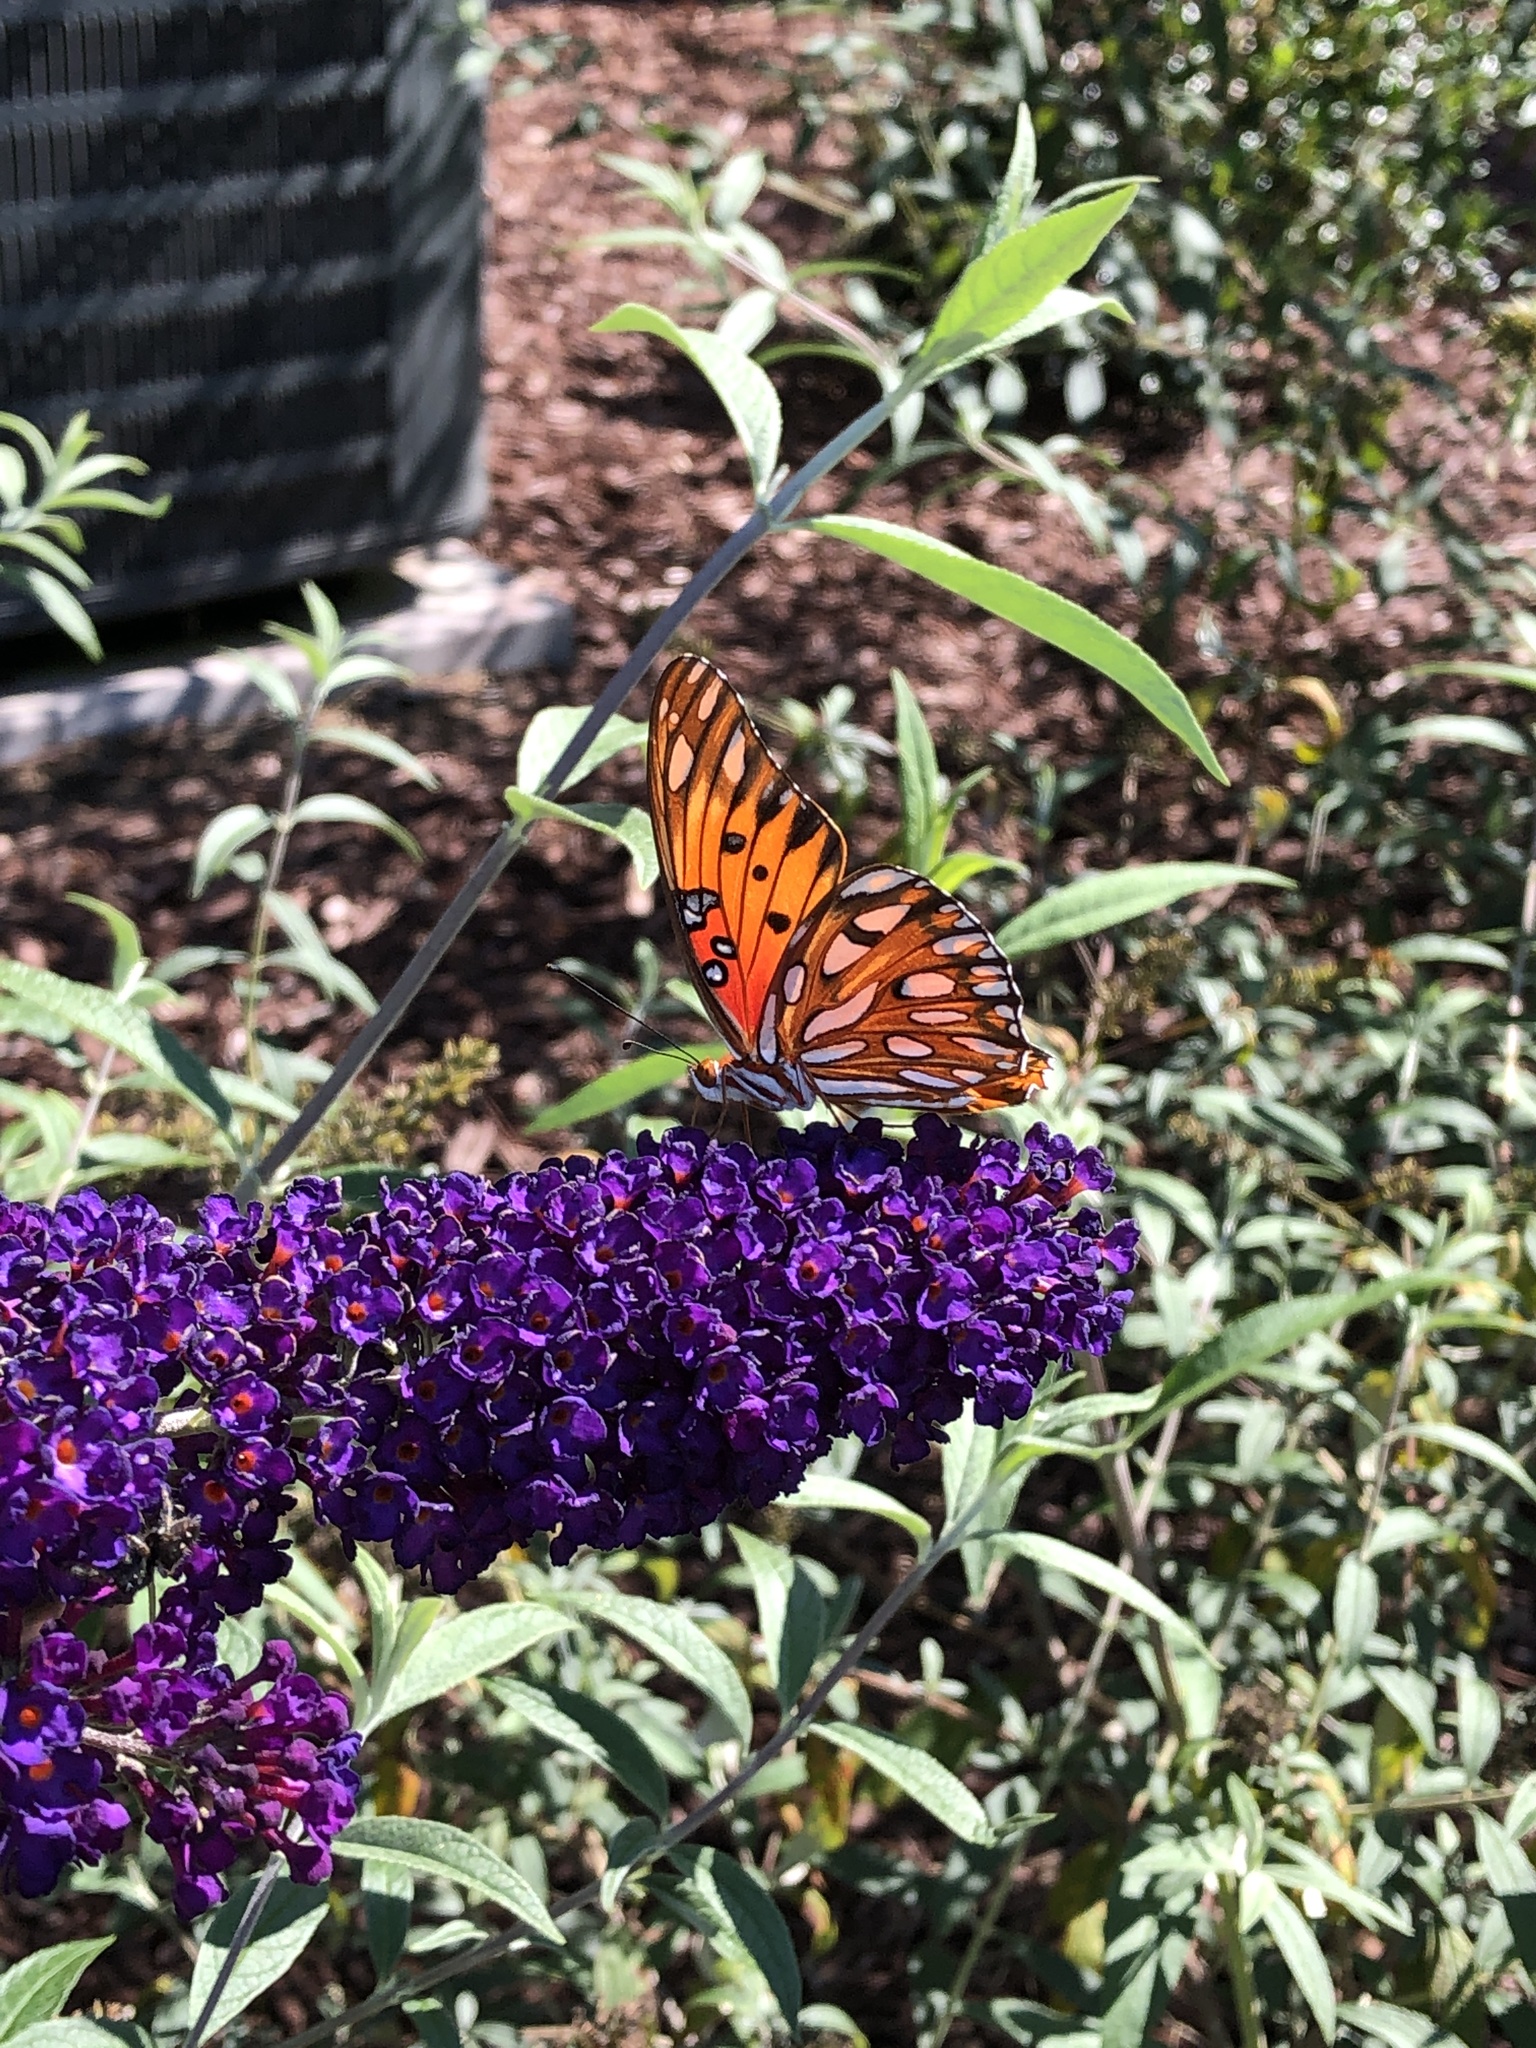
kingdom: Animalia
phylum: Arthropoda
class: Insecta
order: Lepidoptera
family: Nymphalidae
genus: Dione
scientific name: Dione vanillae
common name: Gulf fritillary
